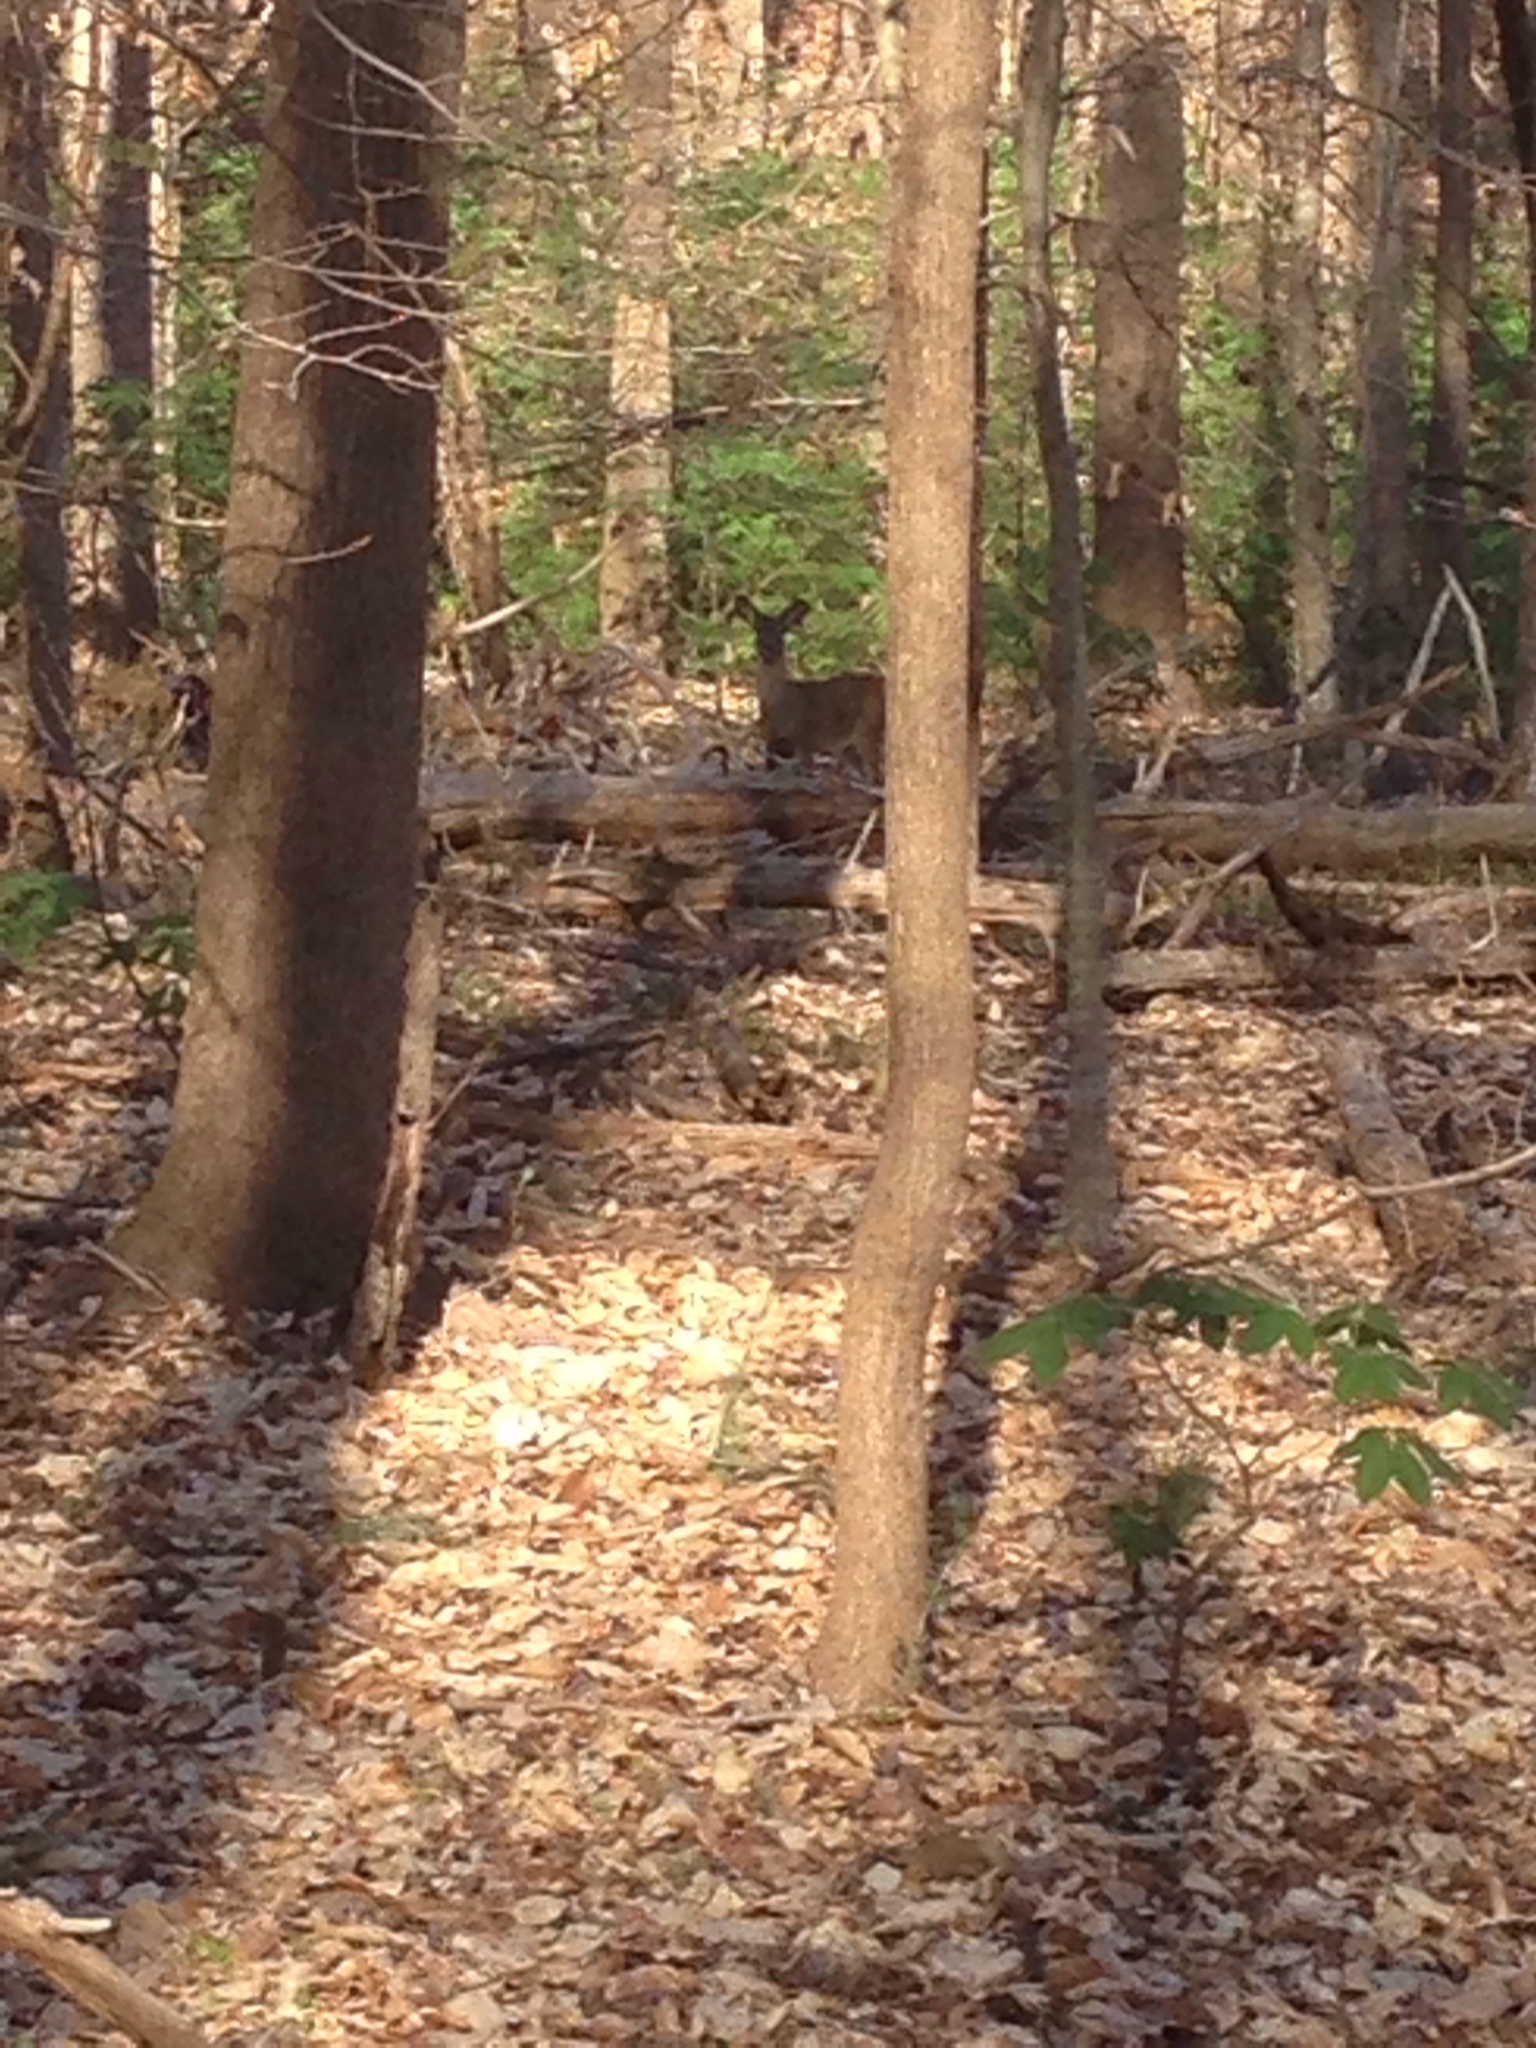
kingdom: Animalia
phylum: Chordata
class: Mammalia
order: Artiodactyla
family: Cervidae
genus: Odocoileus
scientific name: Odocoileus virginianus
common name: White-tailed deer
